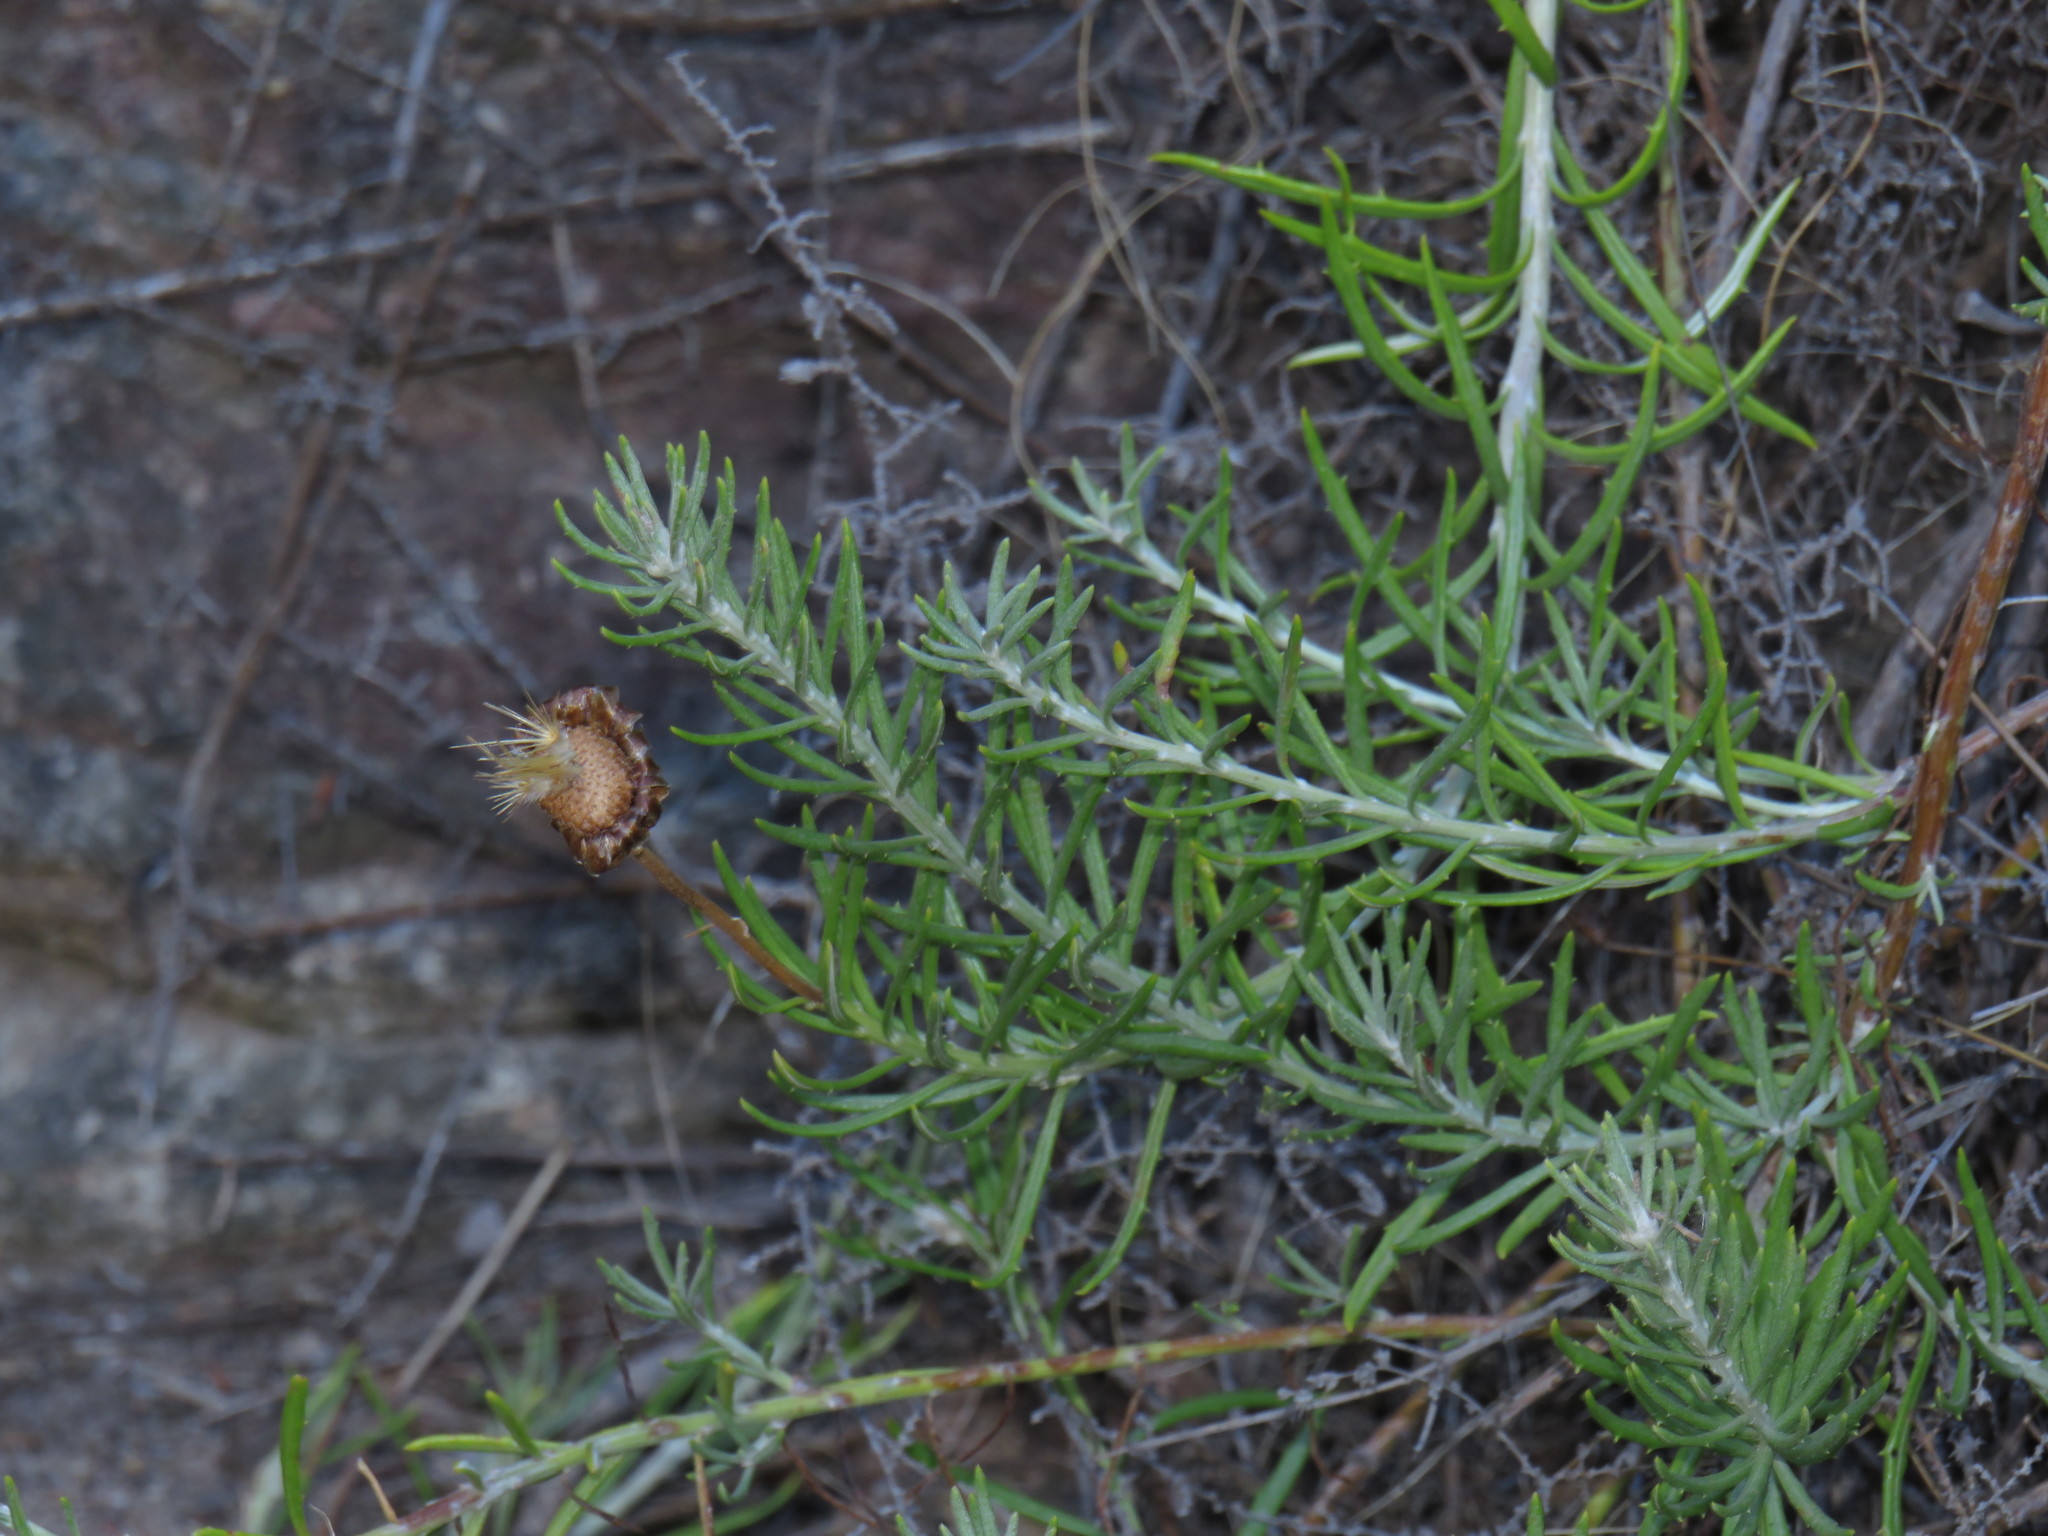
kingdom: Plantae
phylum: Tracheophyta
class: Magnoliopsida
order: Asterales
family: Asteraceae
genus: Heterolepis
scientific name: Heterolepis aliena
